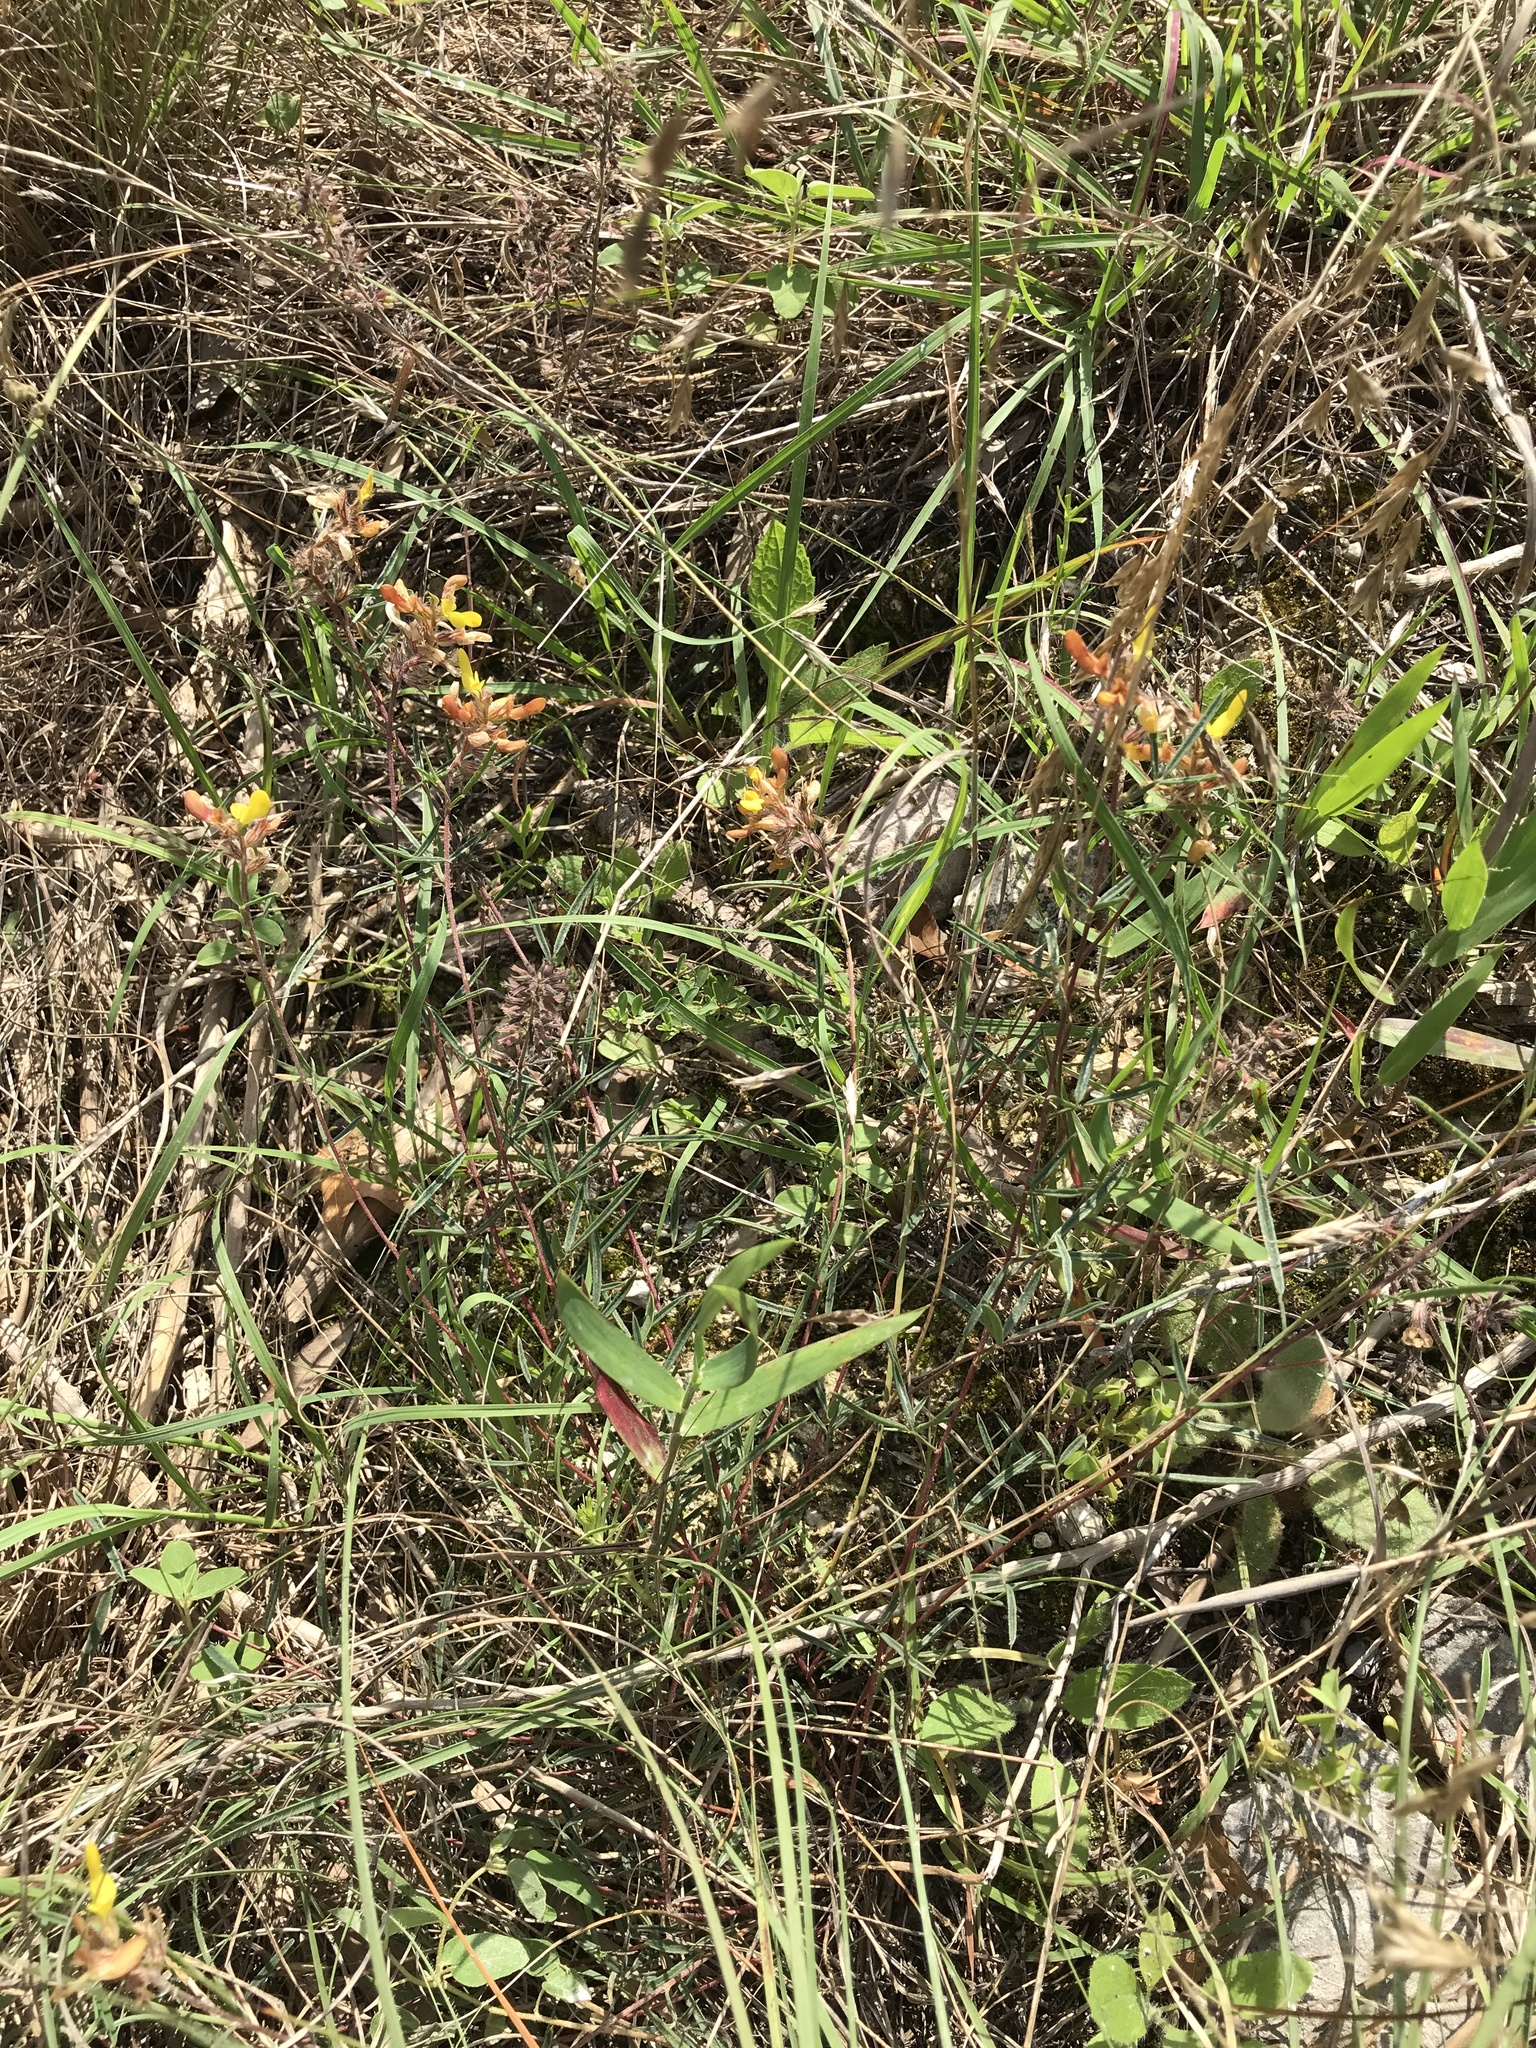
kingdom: Plantae
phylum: Tracheophyta
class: Magnoliopsida
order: Fabales
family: Fabaceae
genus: Dalea
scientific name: Dalea hallii
